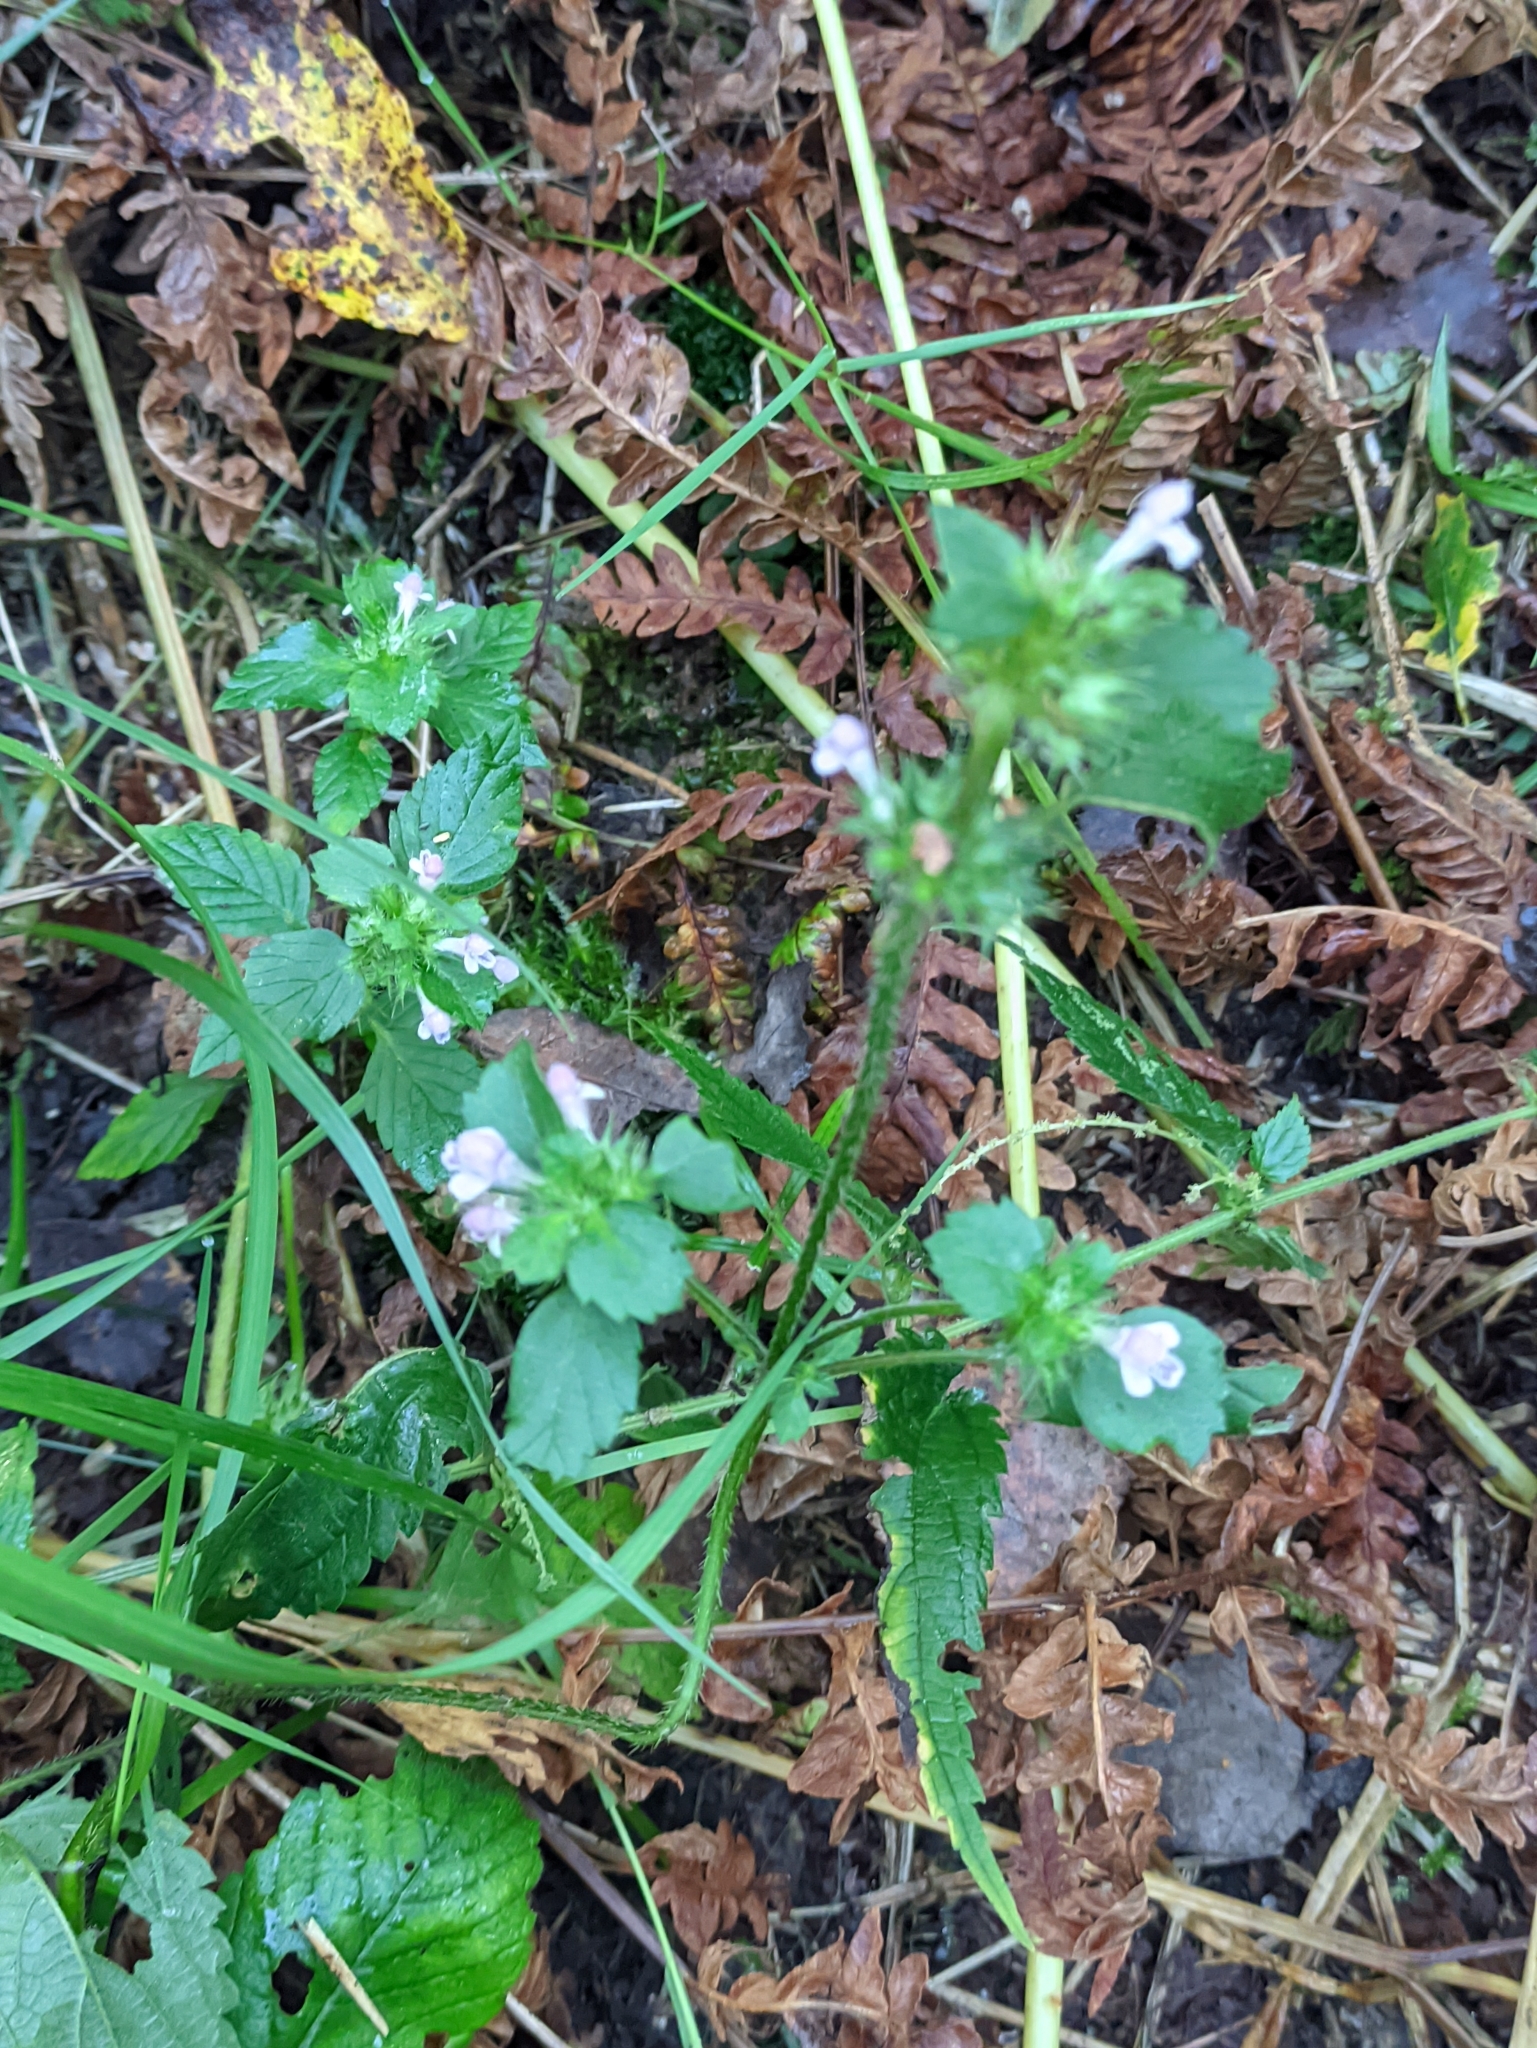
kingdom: Plantae
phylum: Tracheophyta
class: Magnoliopsida
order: Lamiales
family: Lamiaceae
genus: Galeopsis
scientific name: Galeopsis bifida
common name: Bifid hemp-nettle
